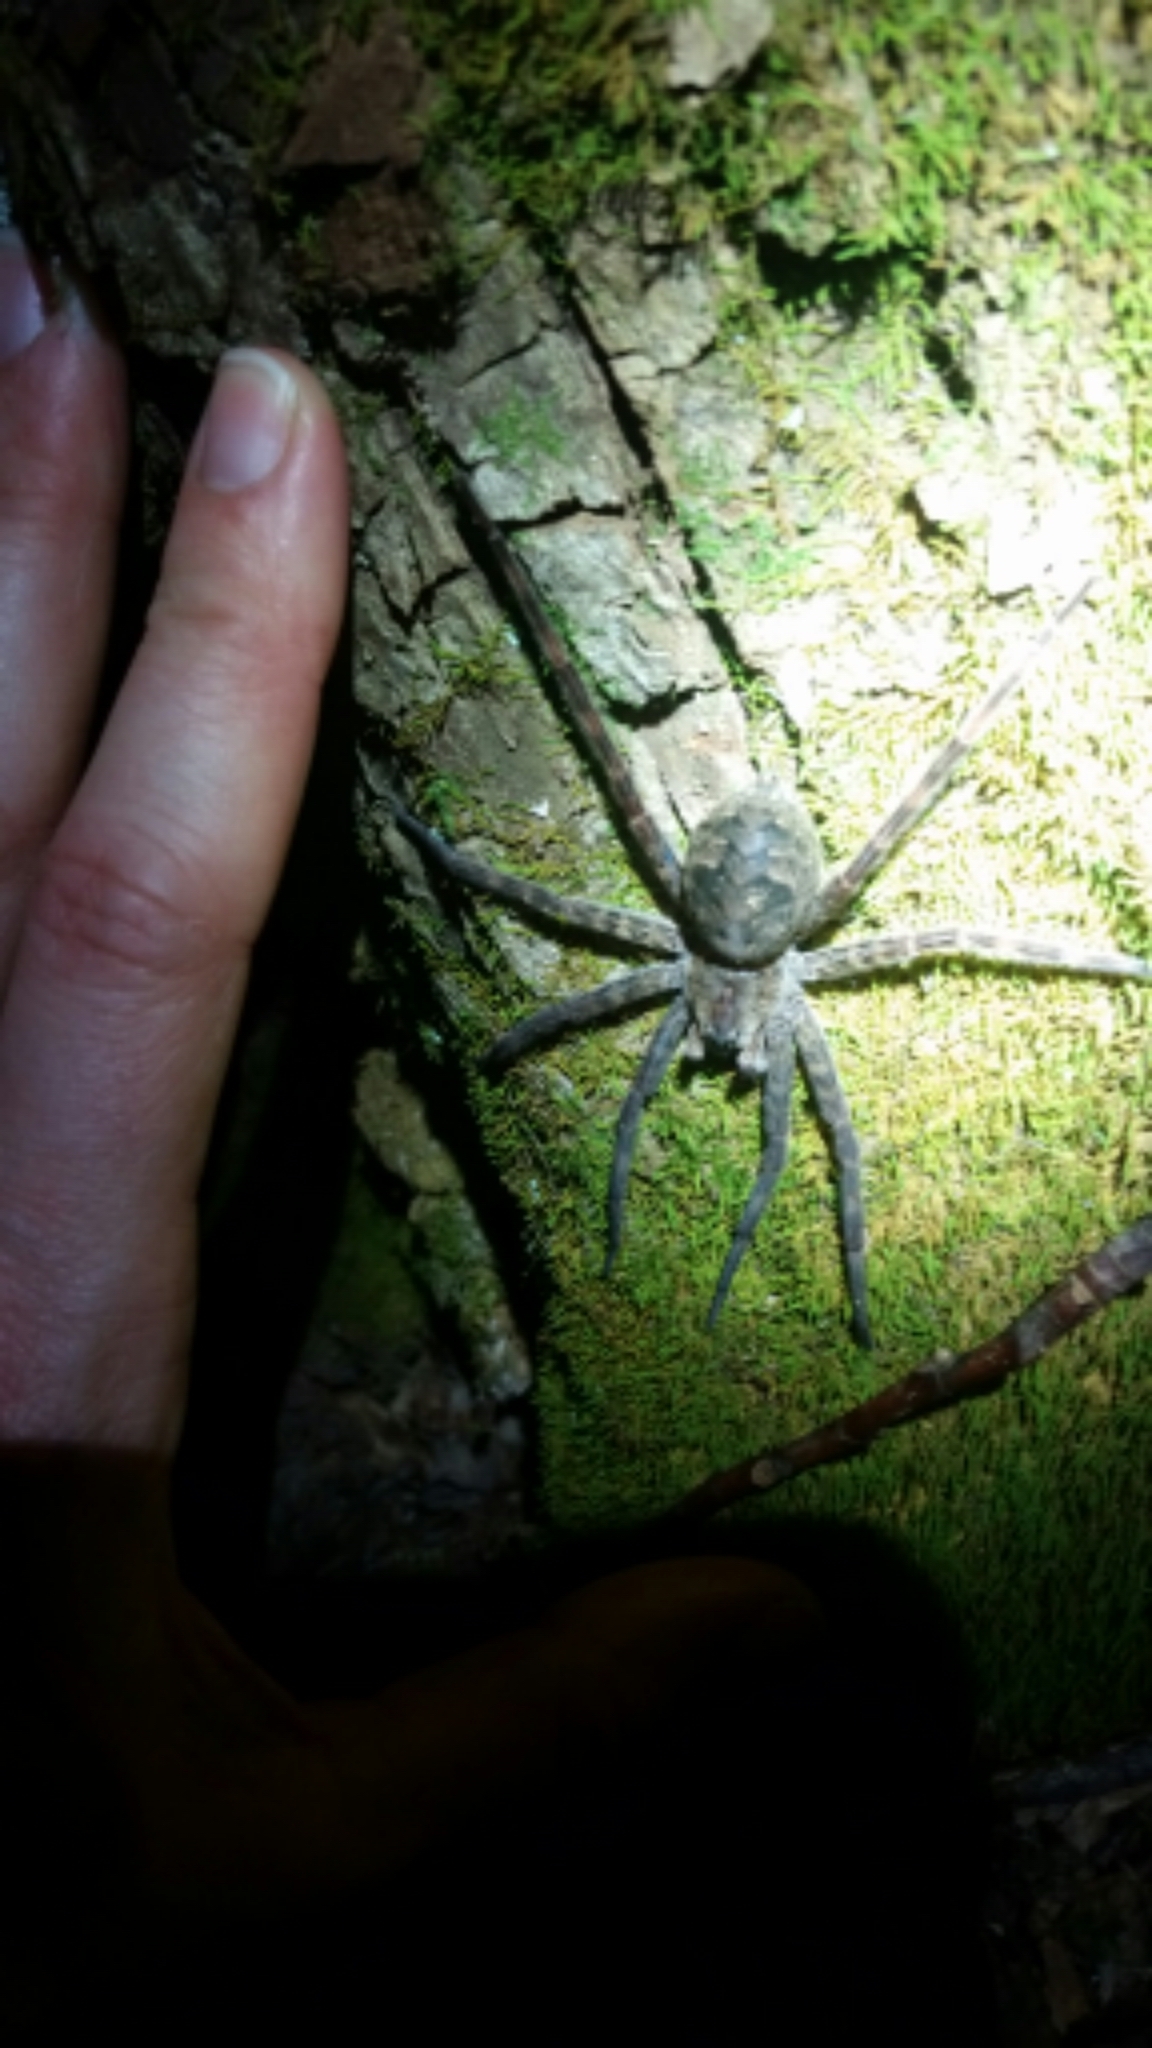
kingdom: Animalia
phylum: Arthropoda
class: Arachnida
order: Araneae
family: Pisauridae
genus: Dolomedes
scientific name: Dolomedes tenebrosus
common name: Dark fishing spider
